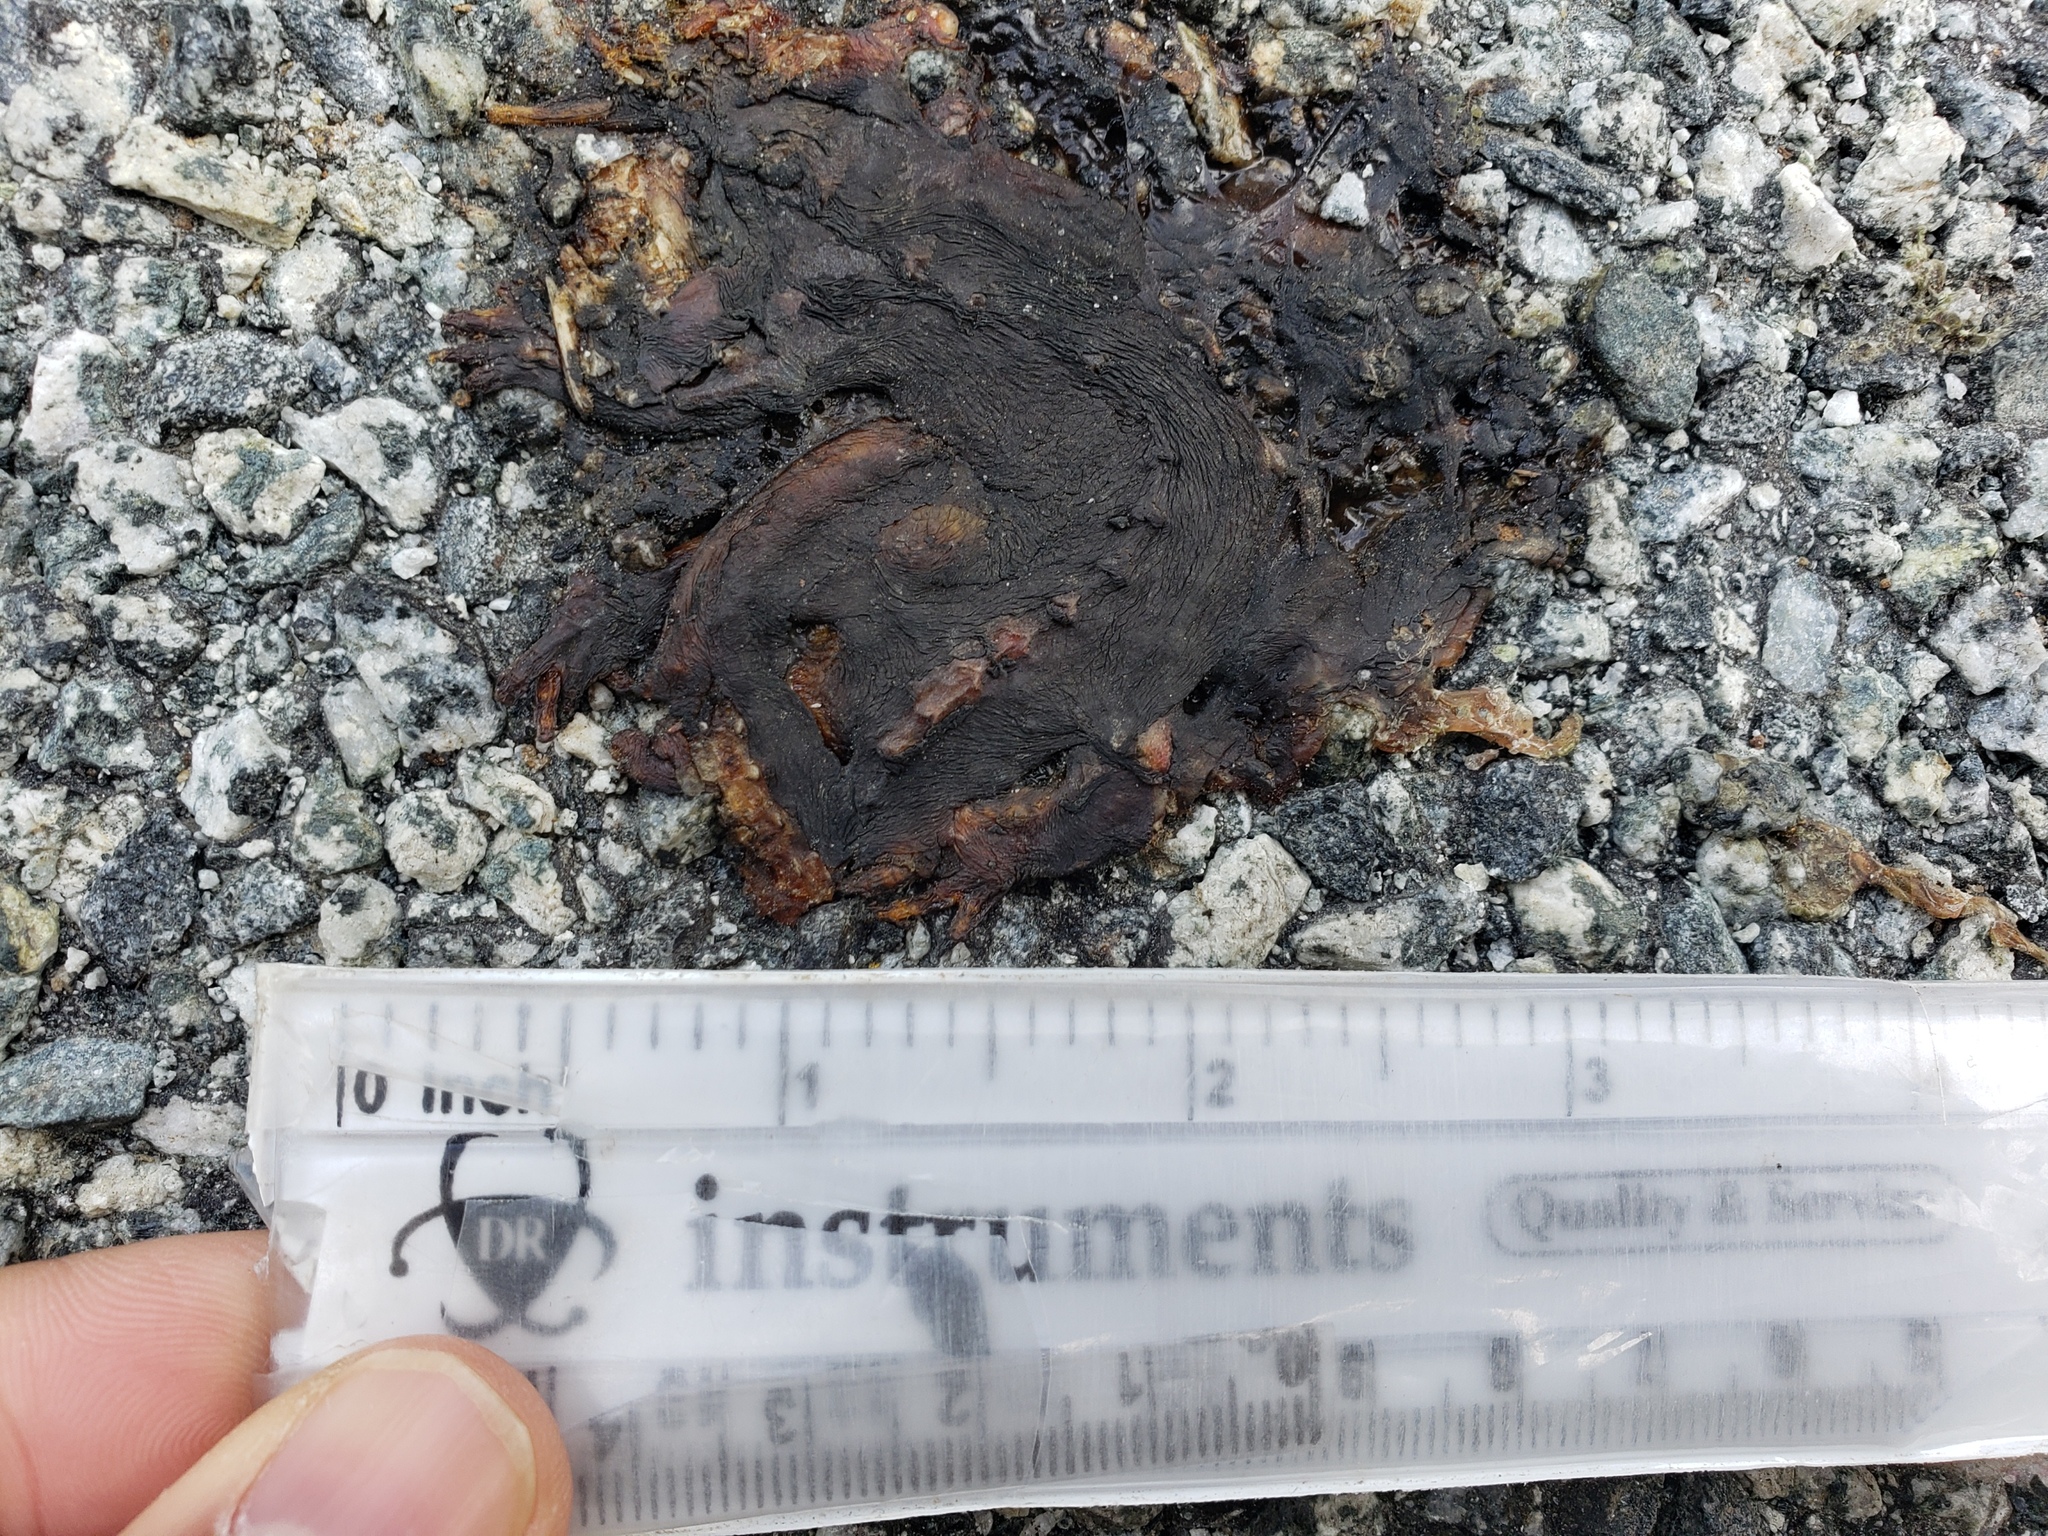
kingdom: Animalia
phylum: Chordata
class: Amphibia
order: Caudata
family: Salamandridae
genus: Taricha
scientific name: Taricha
